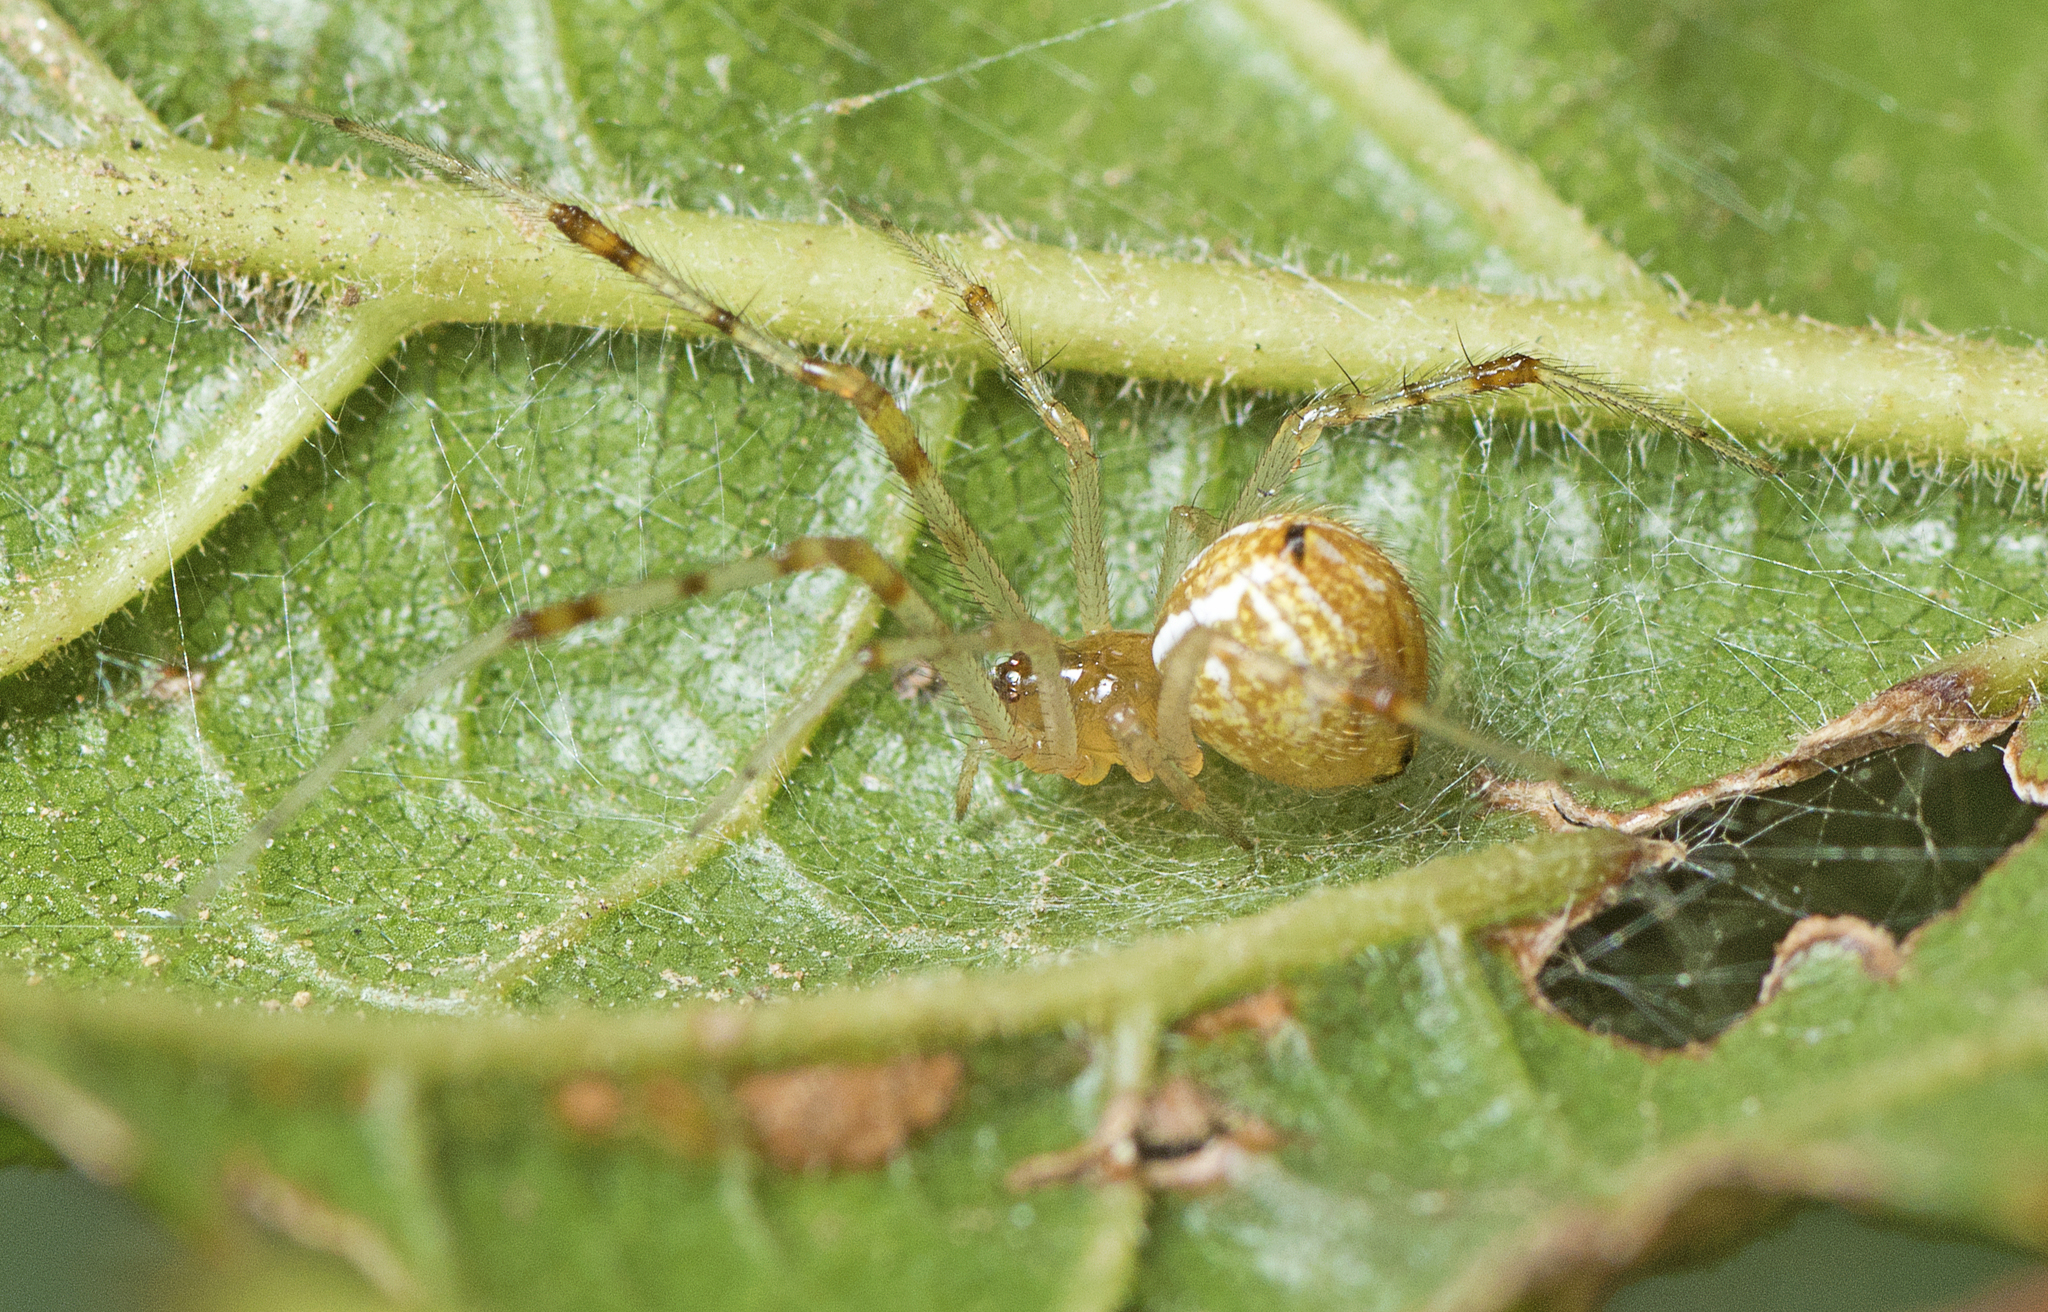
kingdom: Animalia
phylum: Arthropoda
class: Arachnida
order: Araneae
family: Theridiidae
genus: Theridion
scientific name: Theridion pyramidale
